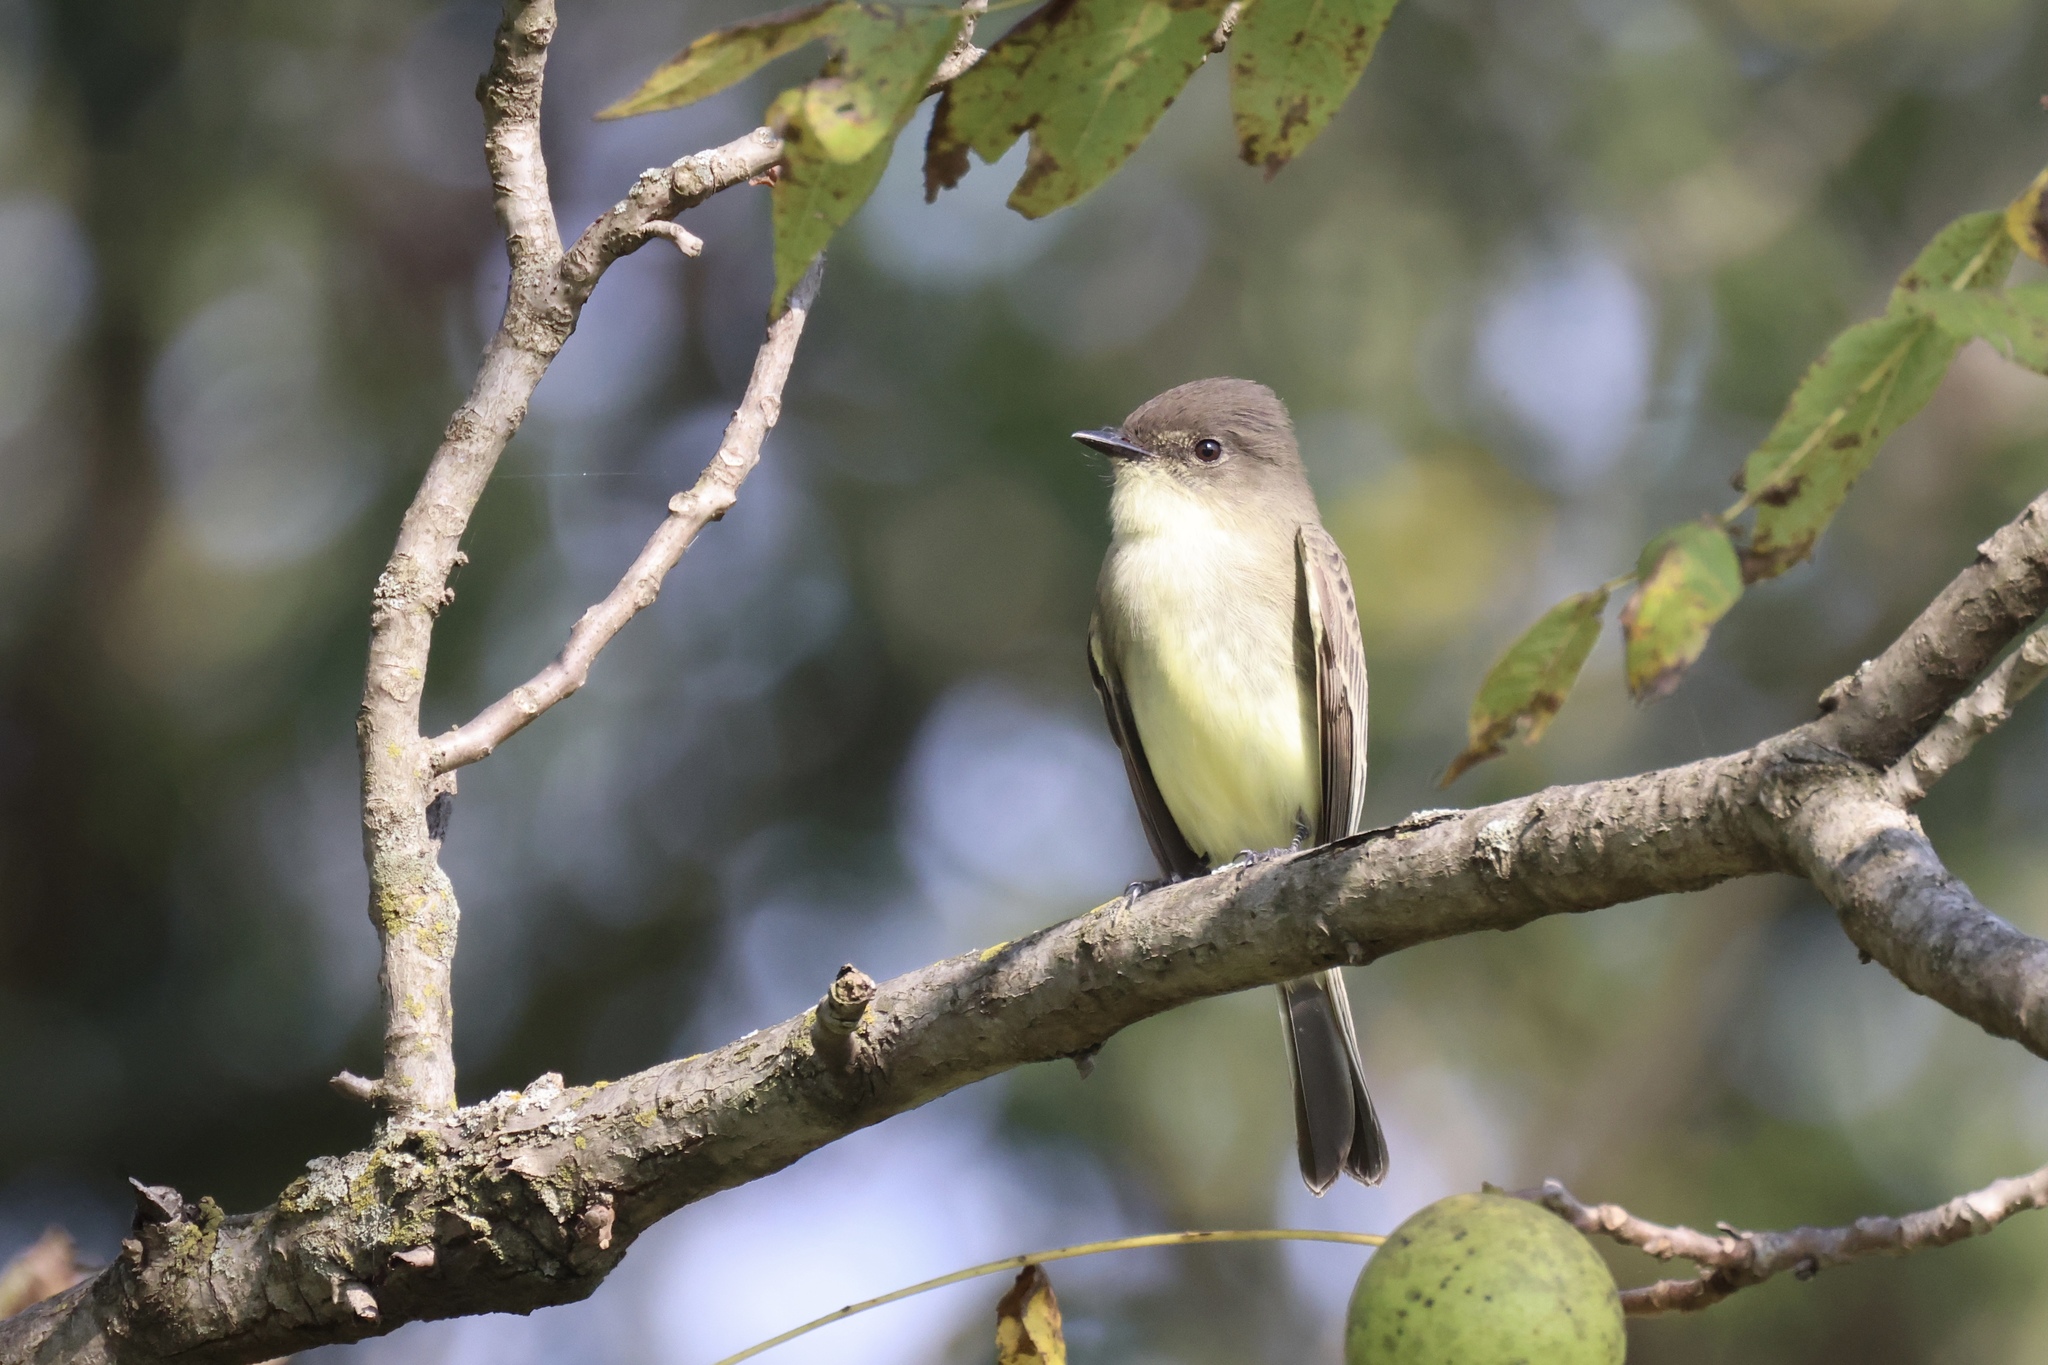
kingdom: Animalia
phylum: Chordata
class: Aves
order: Passeriformes
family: Tyrannidae
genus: Sayornis
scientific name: Sayornis phoebe
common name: Eastern phoebe
